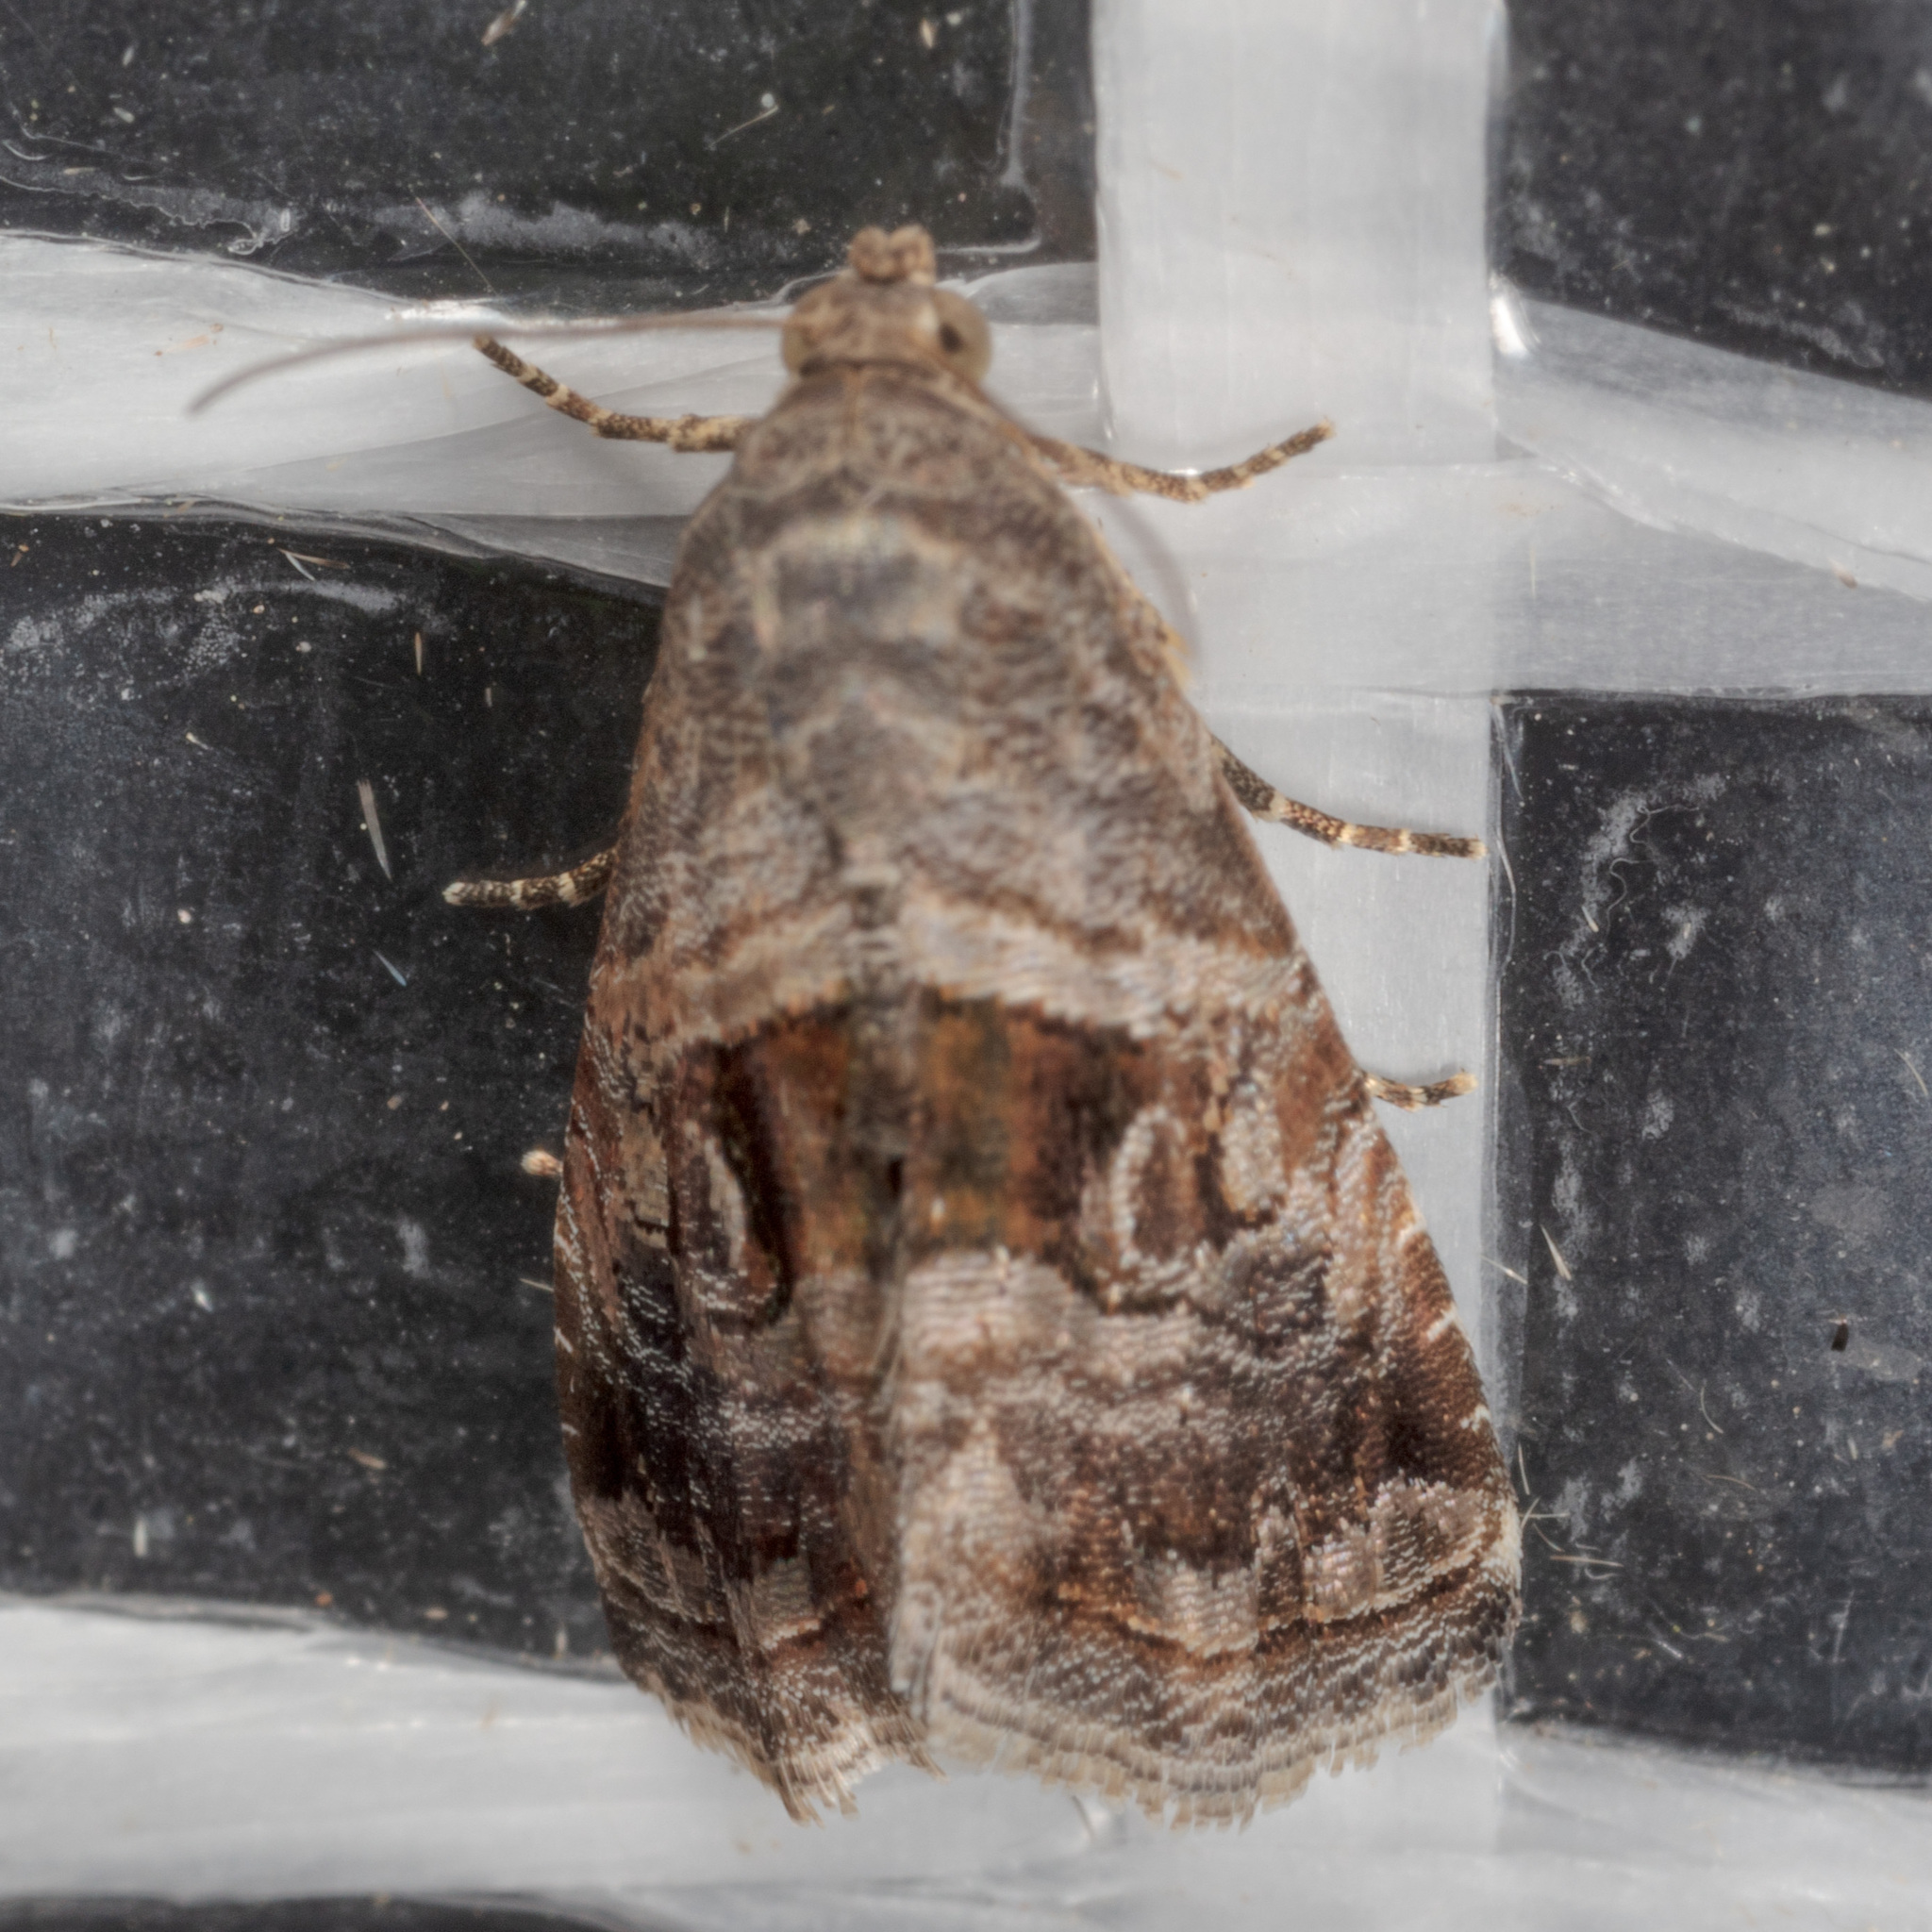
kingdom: Animalia
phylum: Arthropoda
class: Insecta
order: Lepidoptera
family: Noctuidae
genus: Tripudia
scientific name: Tripudia quadrifera
